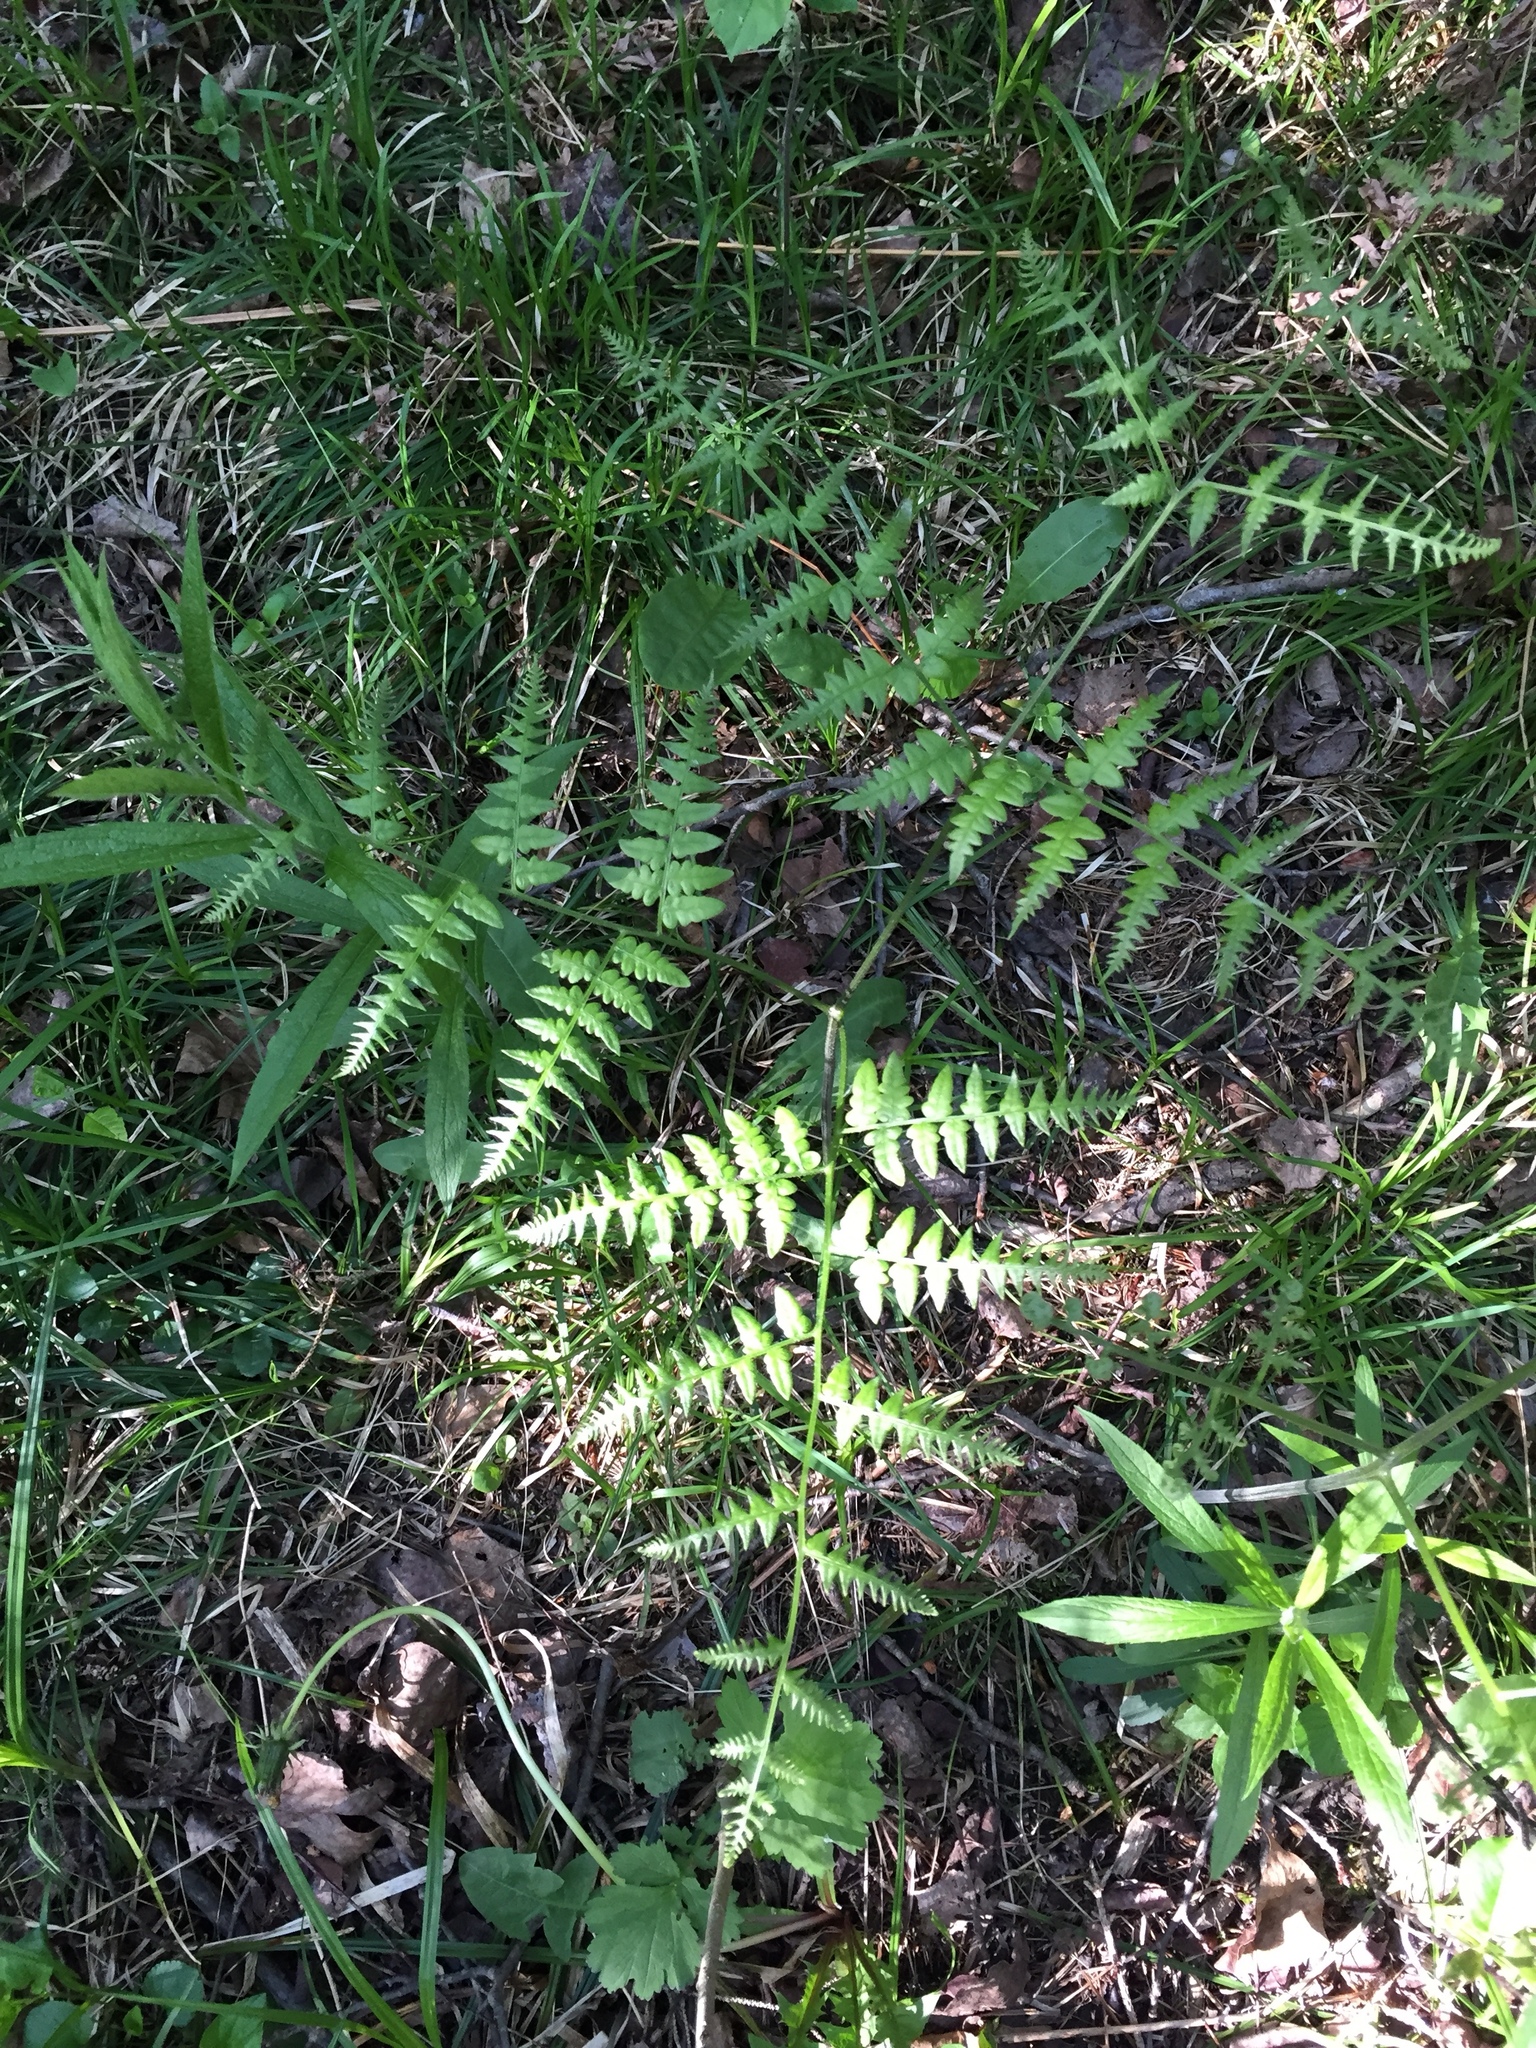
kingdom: Plantae
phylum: Tracheophyta
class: Polypodiopsida
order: Polypodiales
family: Dennstaedtiaceae
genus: Pteridium
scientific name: Pteridium aquilinum
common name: Bracken
